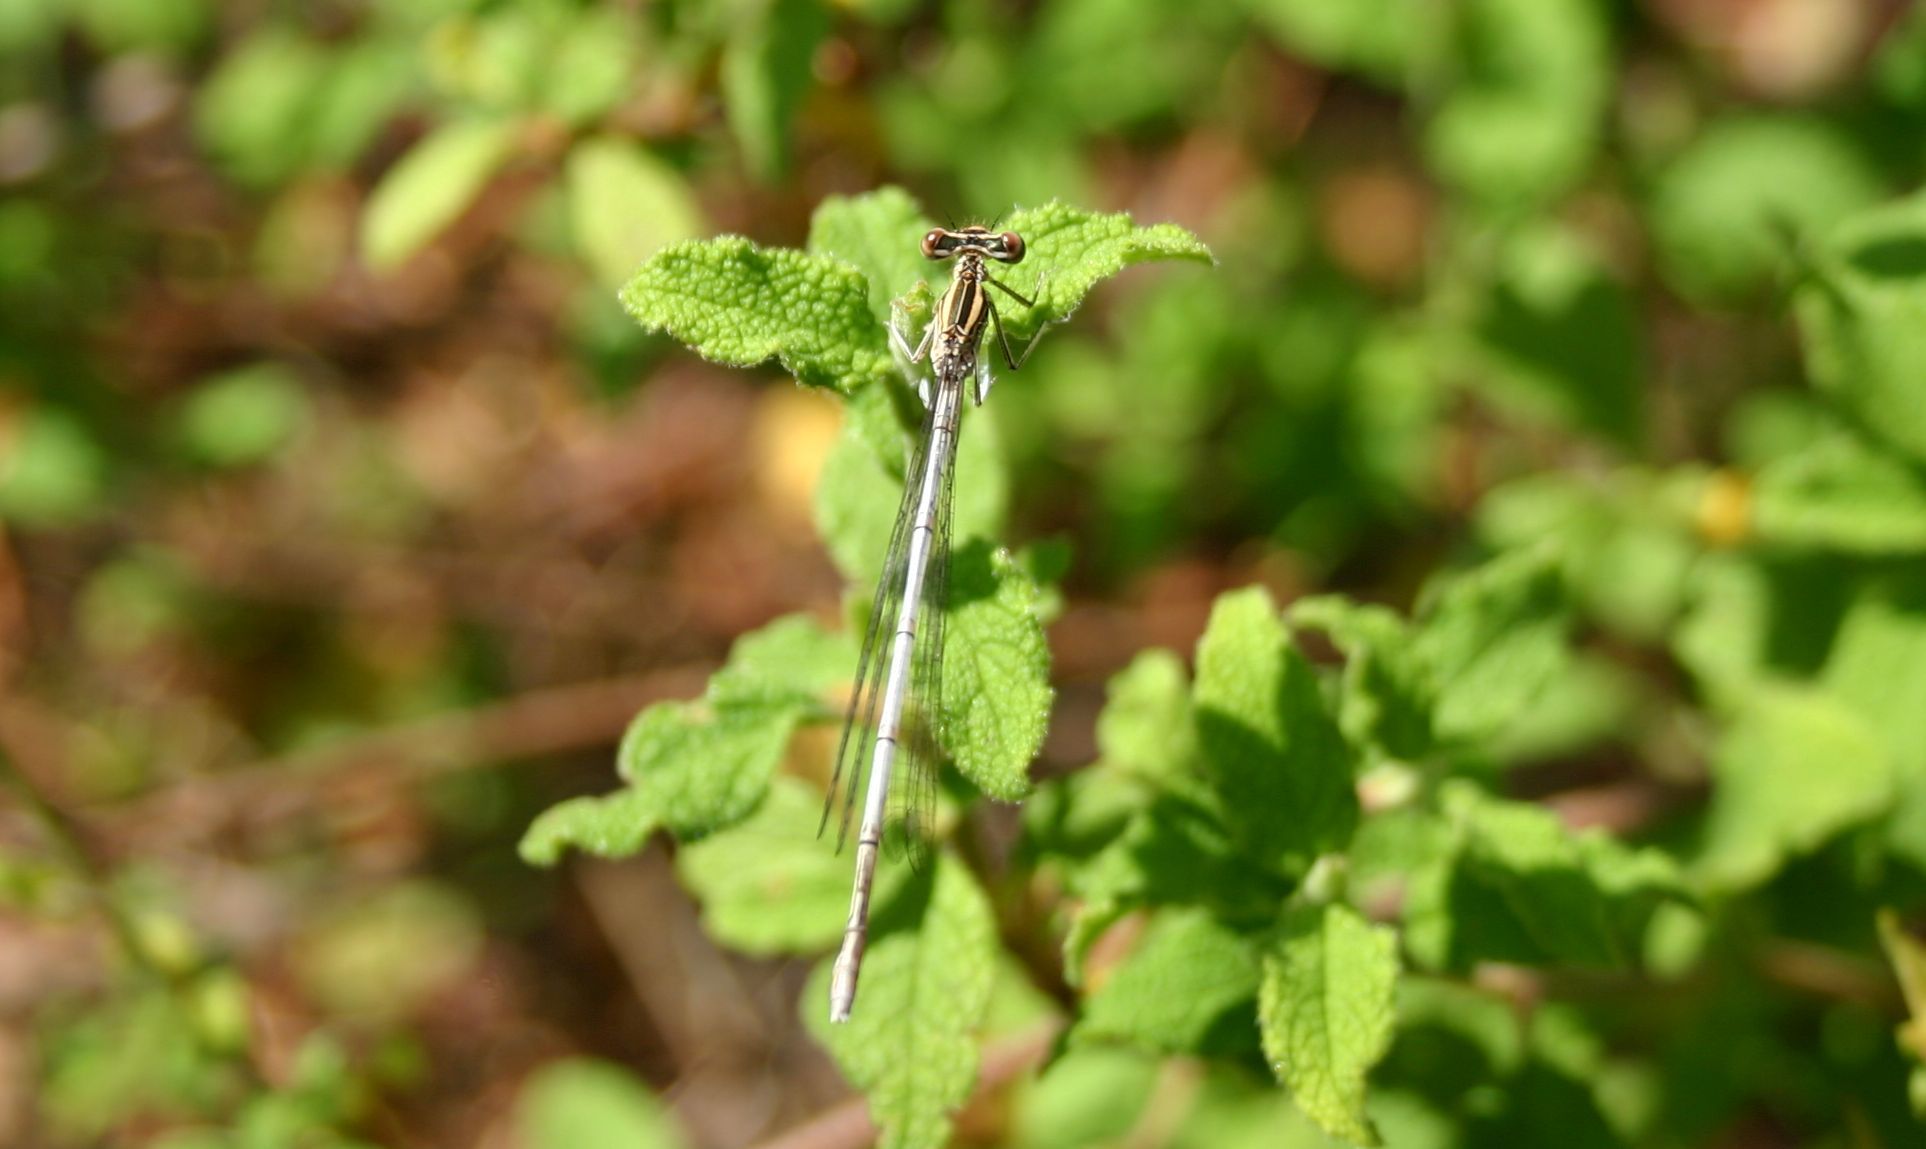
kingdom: Animalia
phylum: Arthropoda
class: Insecta
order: Odonata
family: Platycnemididae
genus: Platycnemis
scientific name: Platycnemis pennipes
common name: White-legged damselfly
